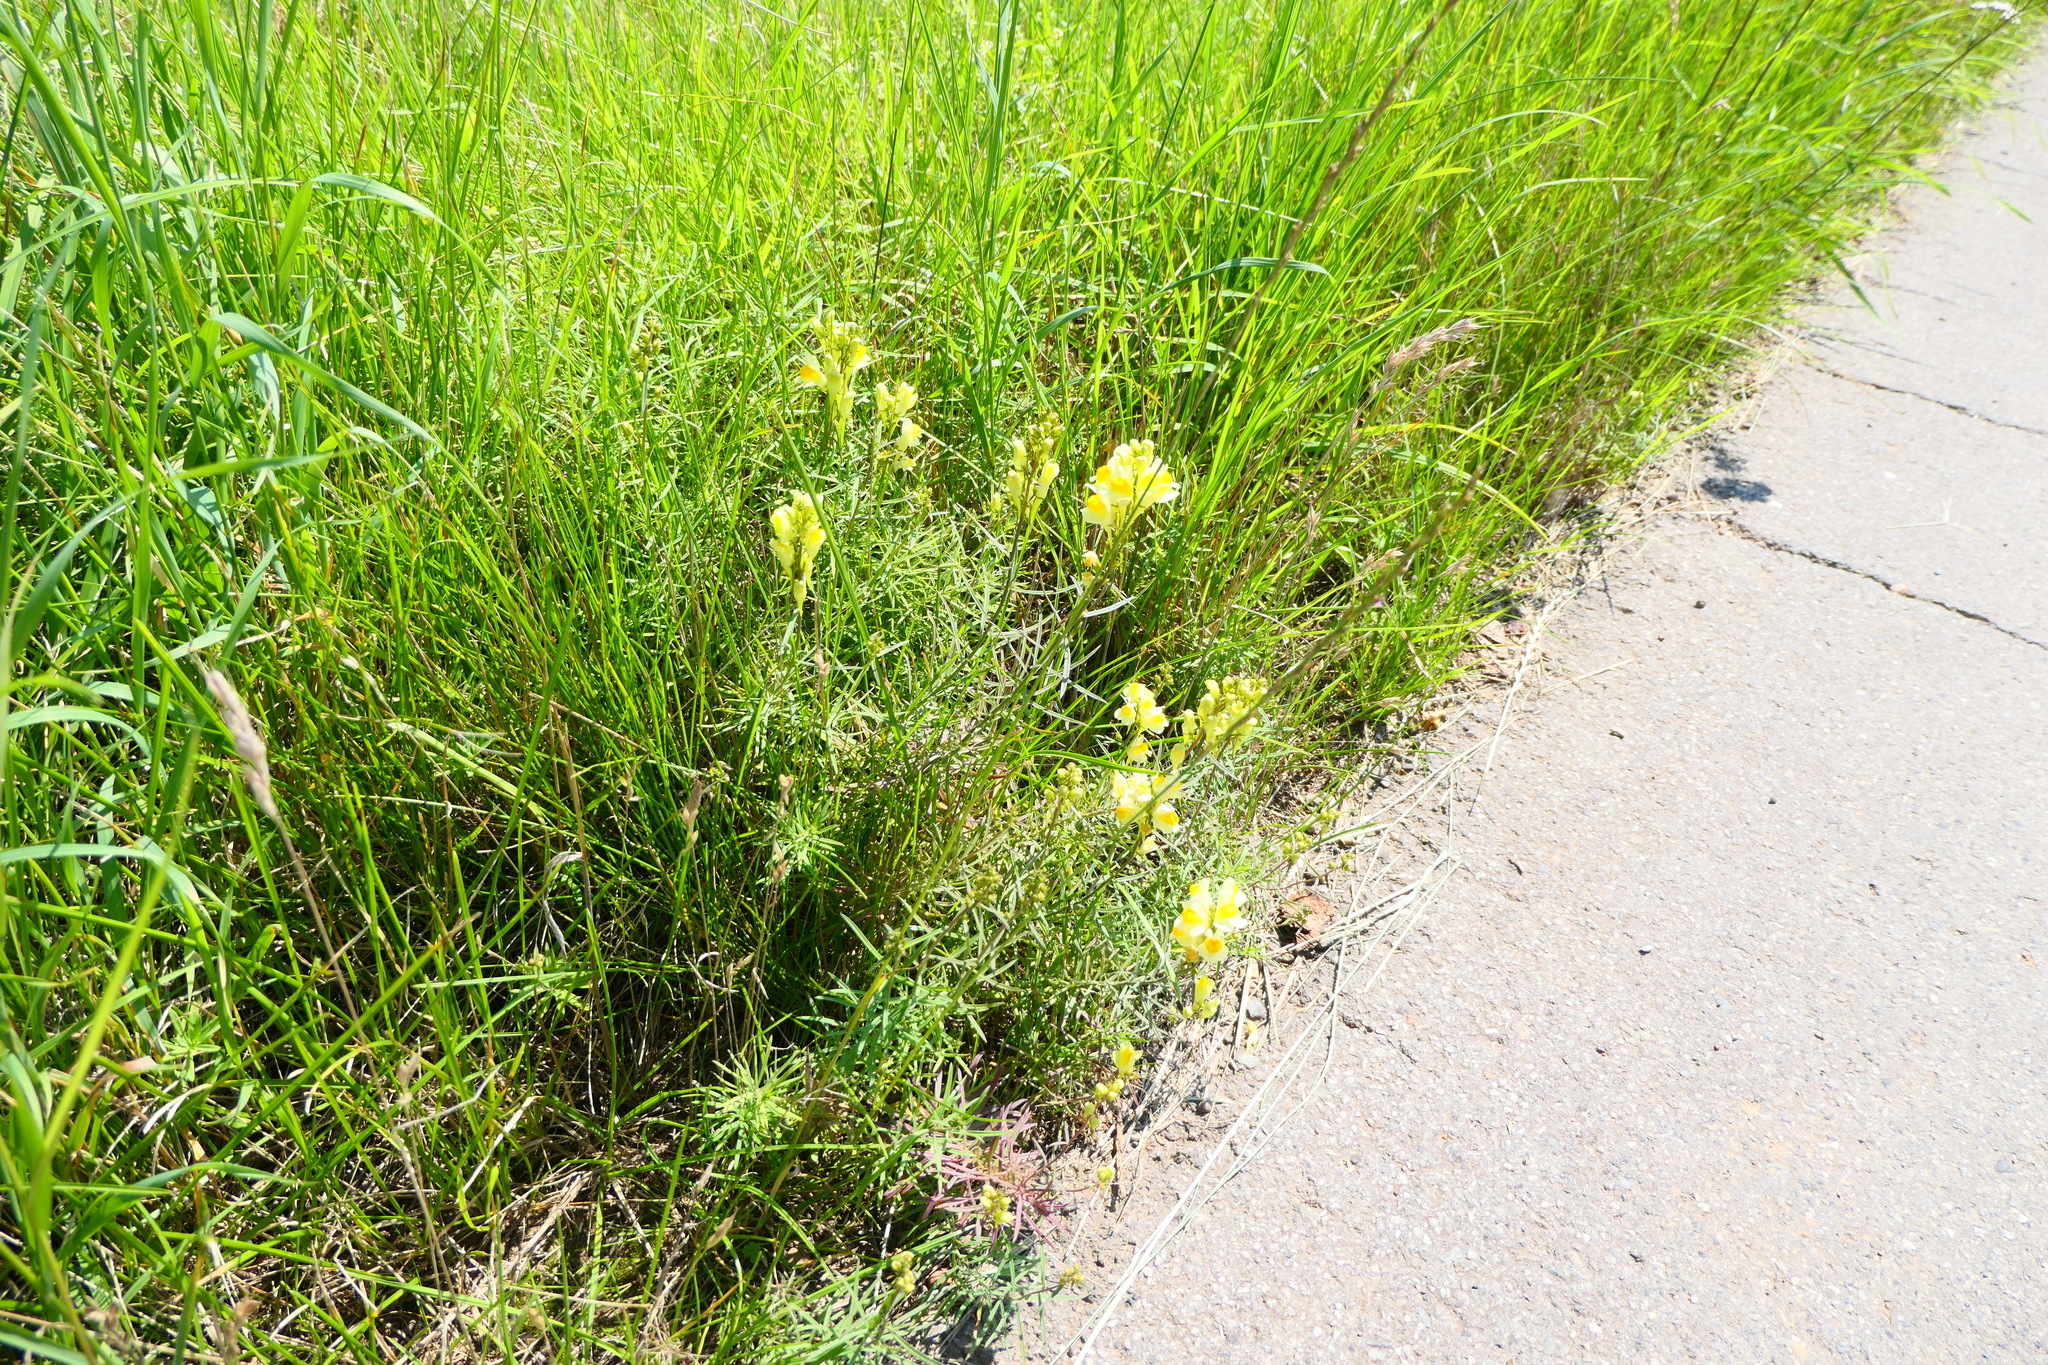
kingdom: Plantae
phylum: Tracheophyta
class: Magnoliopsida
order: Lamiales
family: Plantaginaceae
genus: Linaria
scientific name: Linaria vulgaris
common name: Butter and eggs
